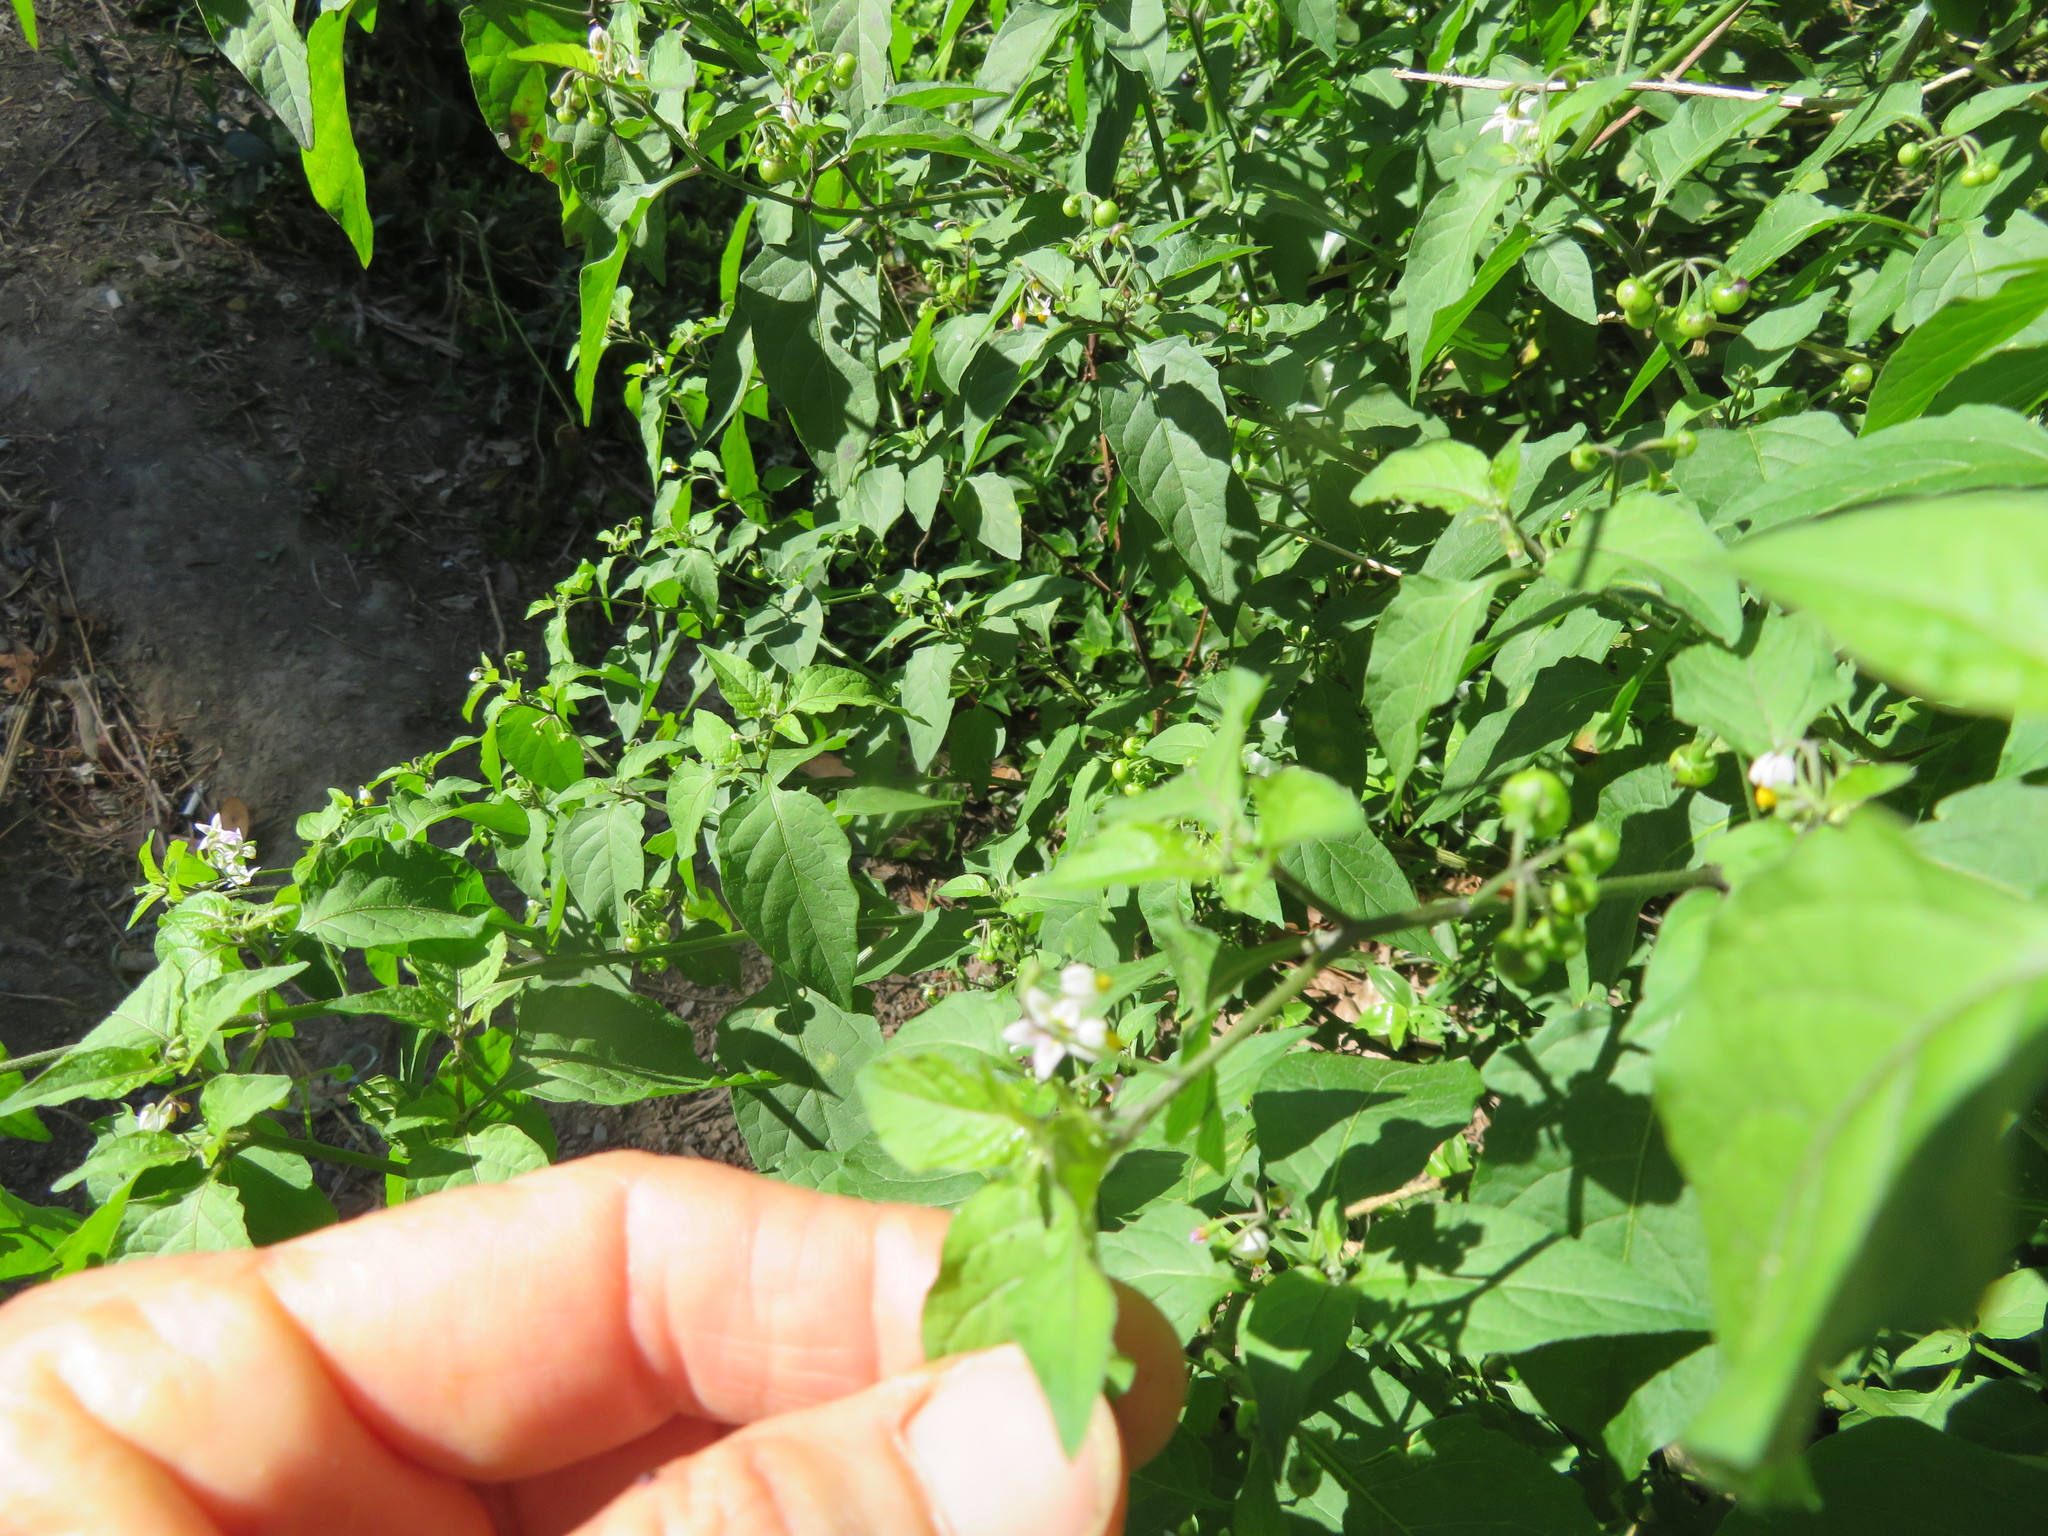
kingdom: Plantae
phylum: Tracheophyta
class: Magnoliopsida
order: Solanales
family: Solanaceae
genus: Solanum
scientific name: Solanum americanum
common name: American black nightshade
